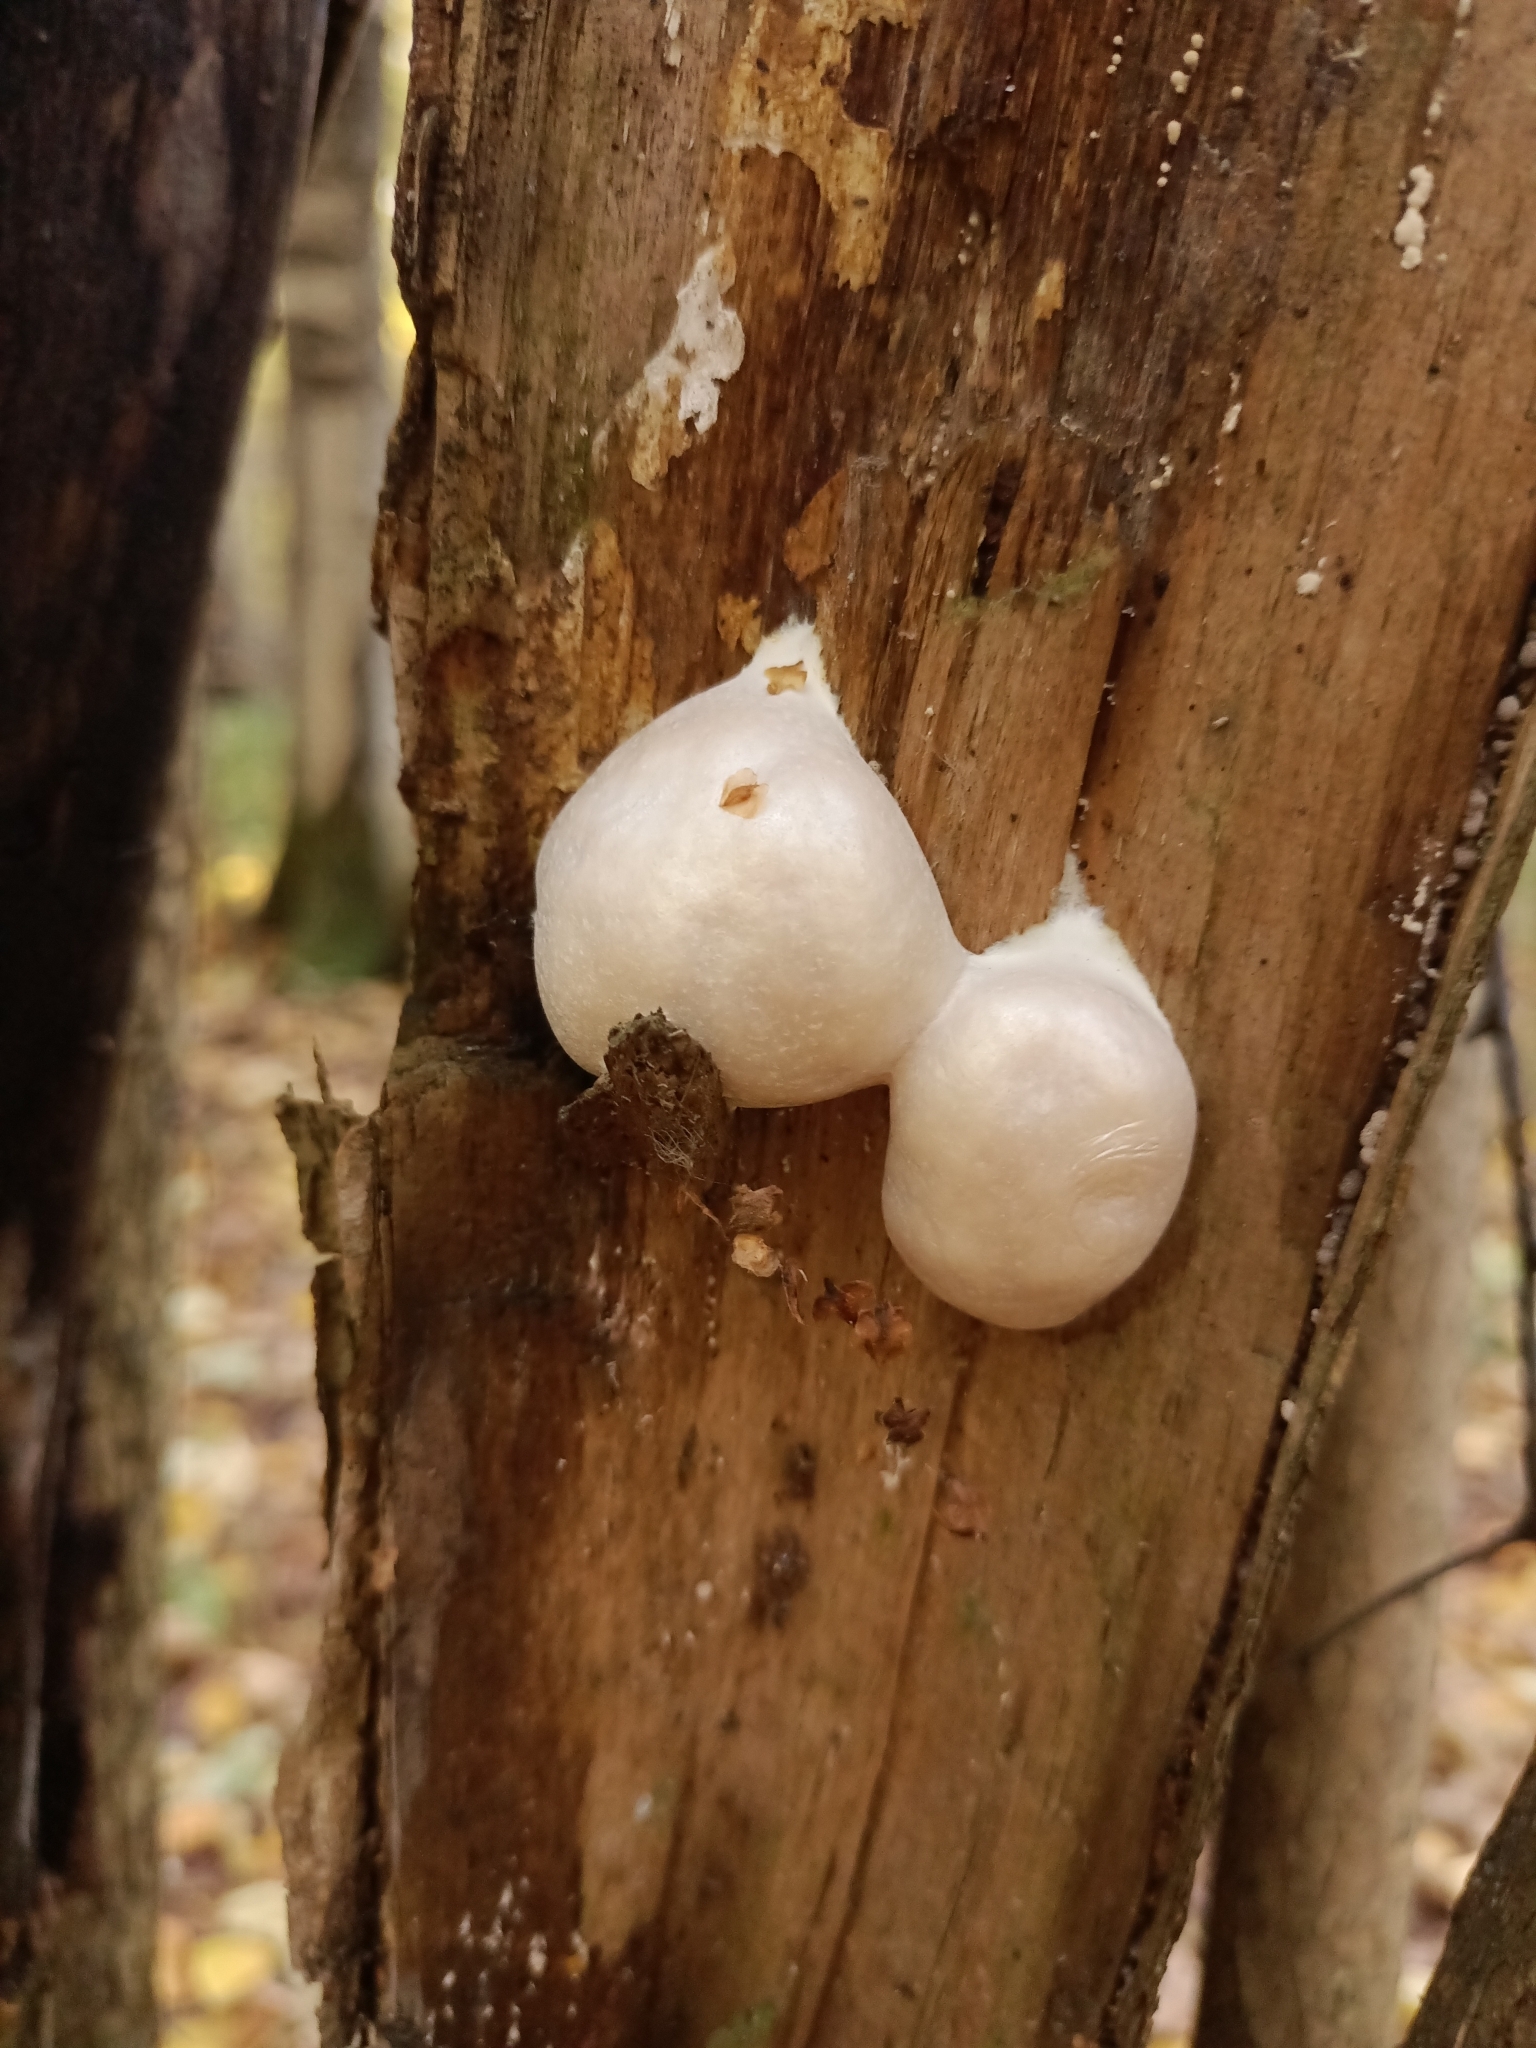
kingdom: Protozoa
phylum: Mycetozoa
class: Myxomycetes
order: Cribrariales
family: Tubiferaceae
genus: Reticularia
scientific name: Reticularia lycoperdon
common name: False puffball
